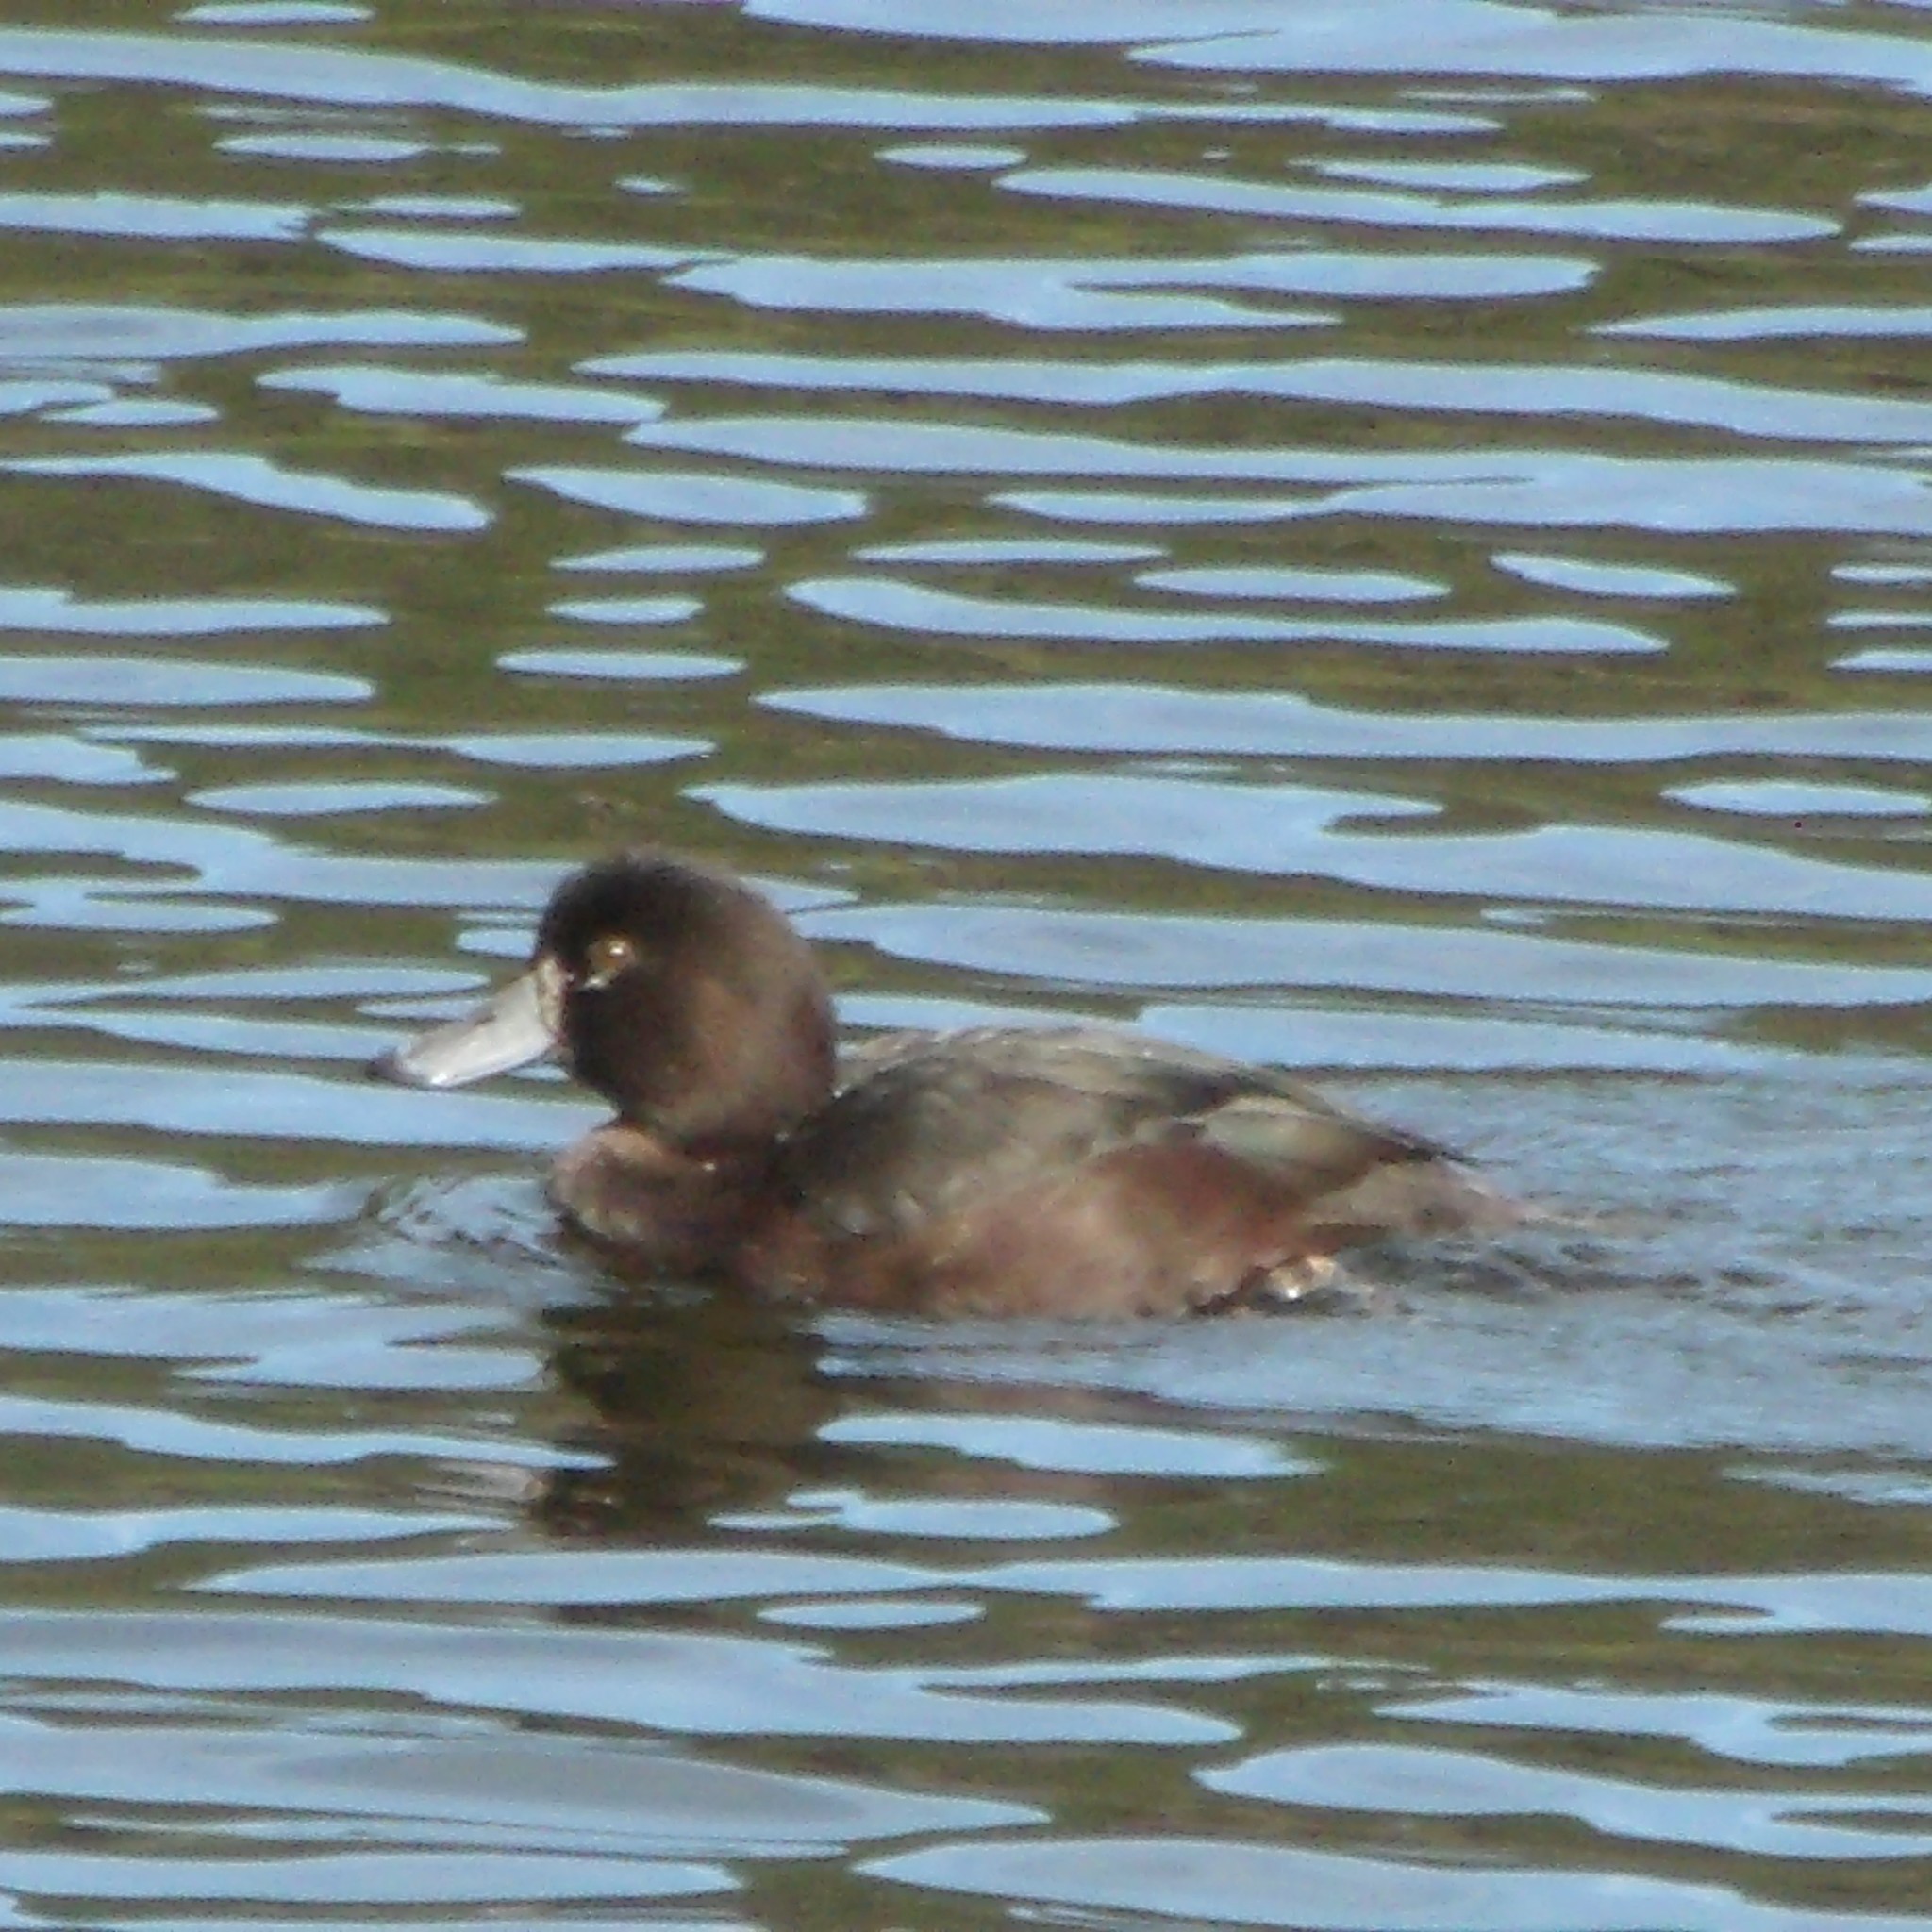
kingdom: Animalia
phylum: Chordata
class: Aves
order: Anseriformes
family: Anatidae
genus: Aythya
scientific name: Aythya novaeseelandiae
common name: New zealand scaup
